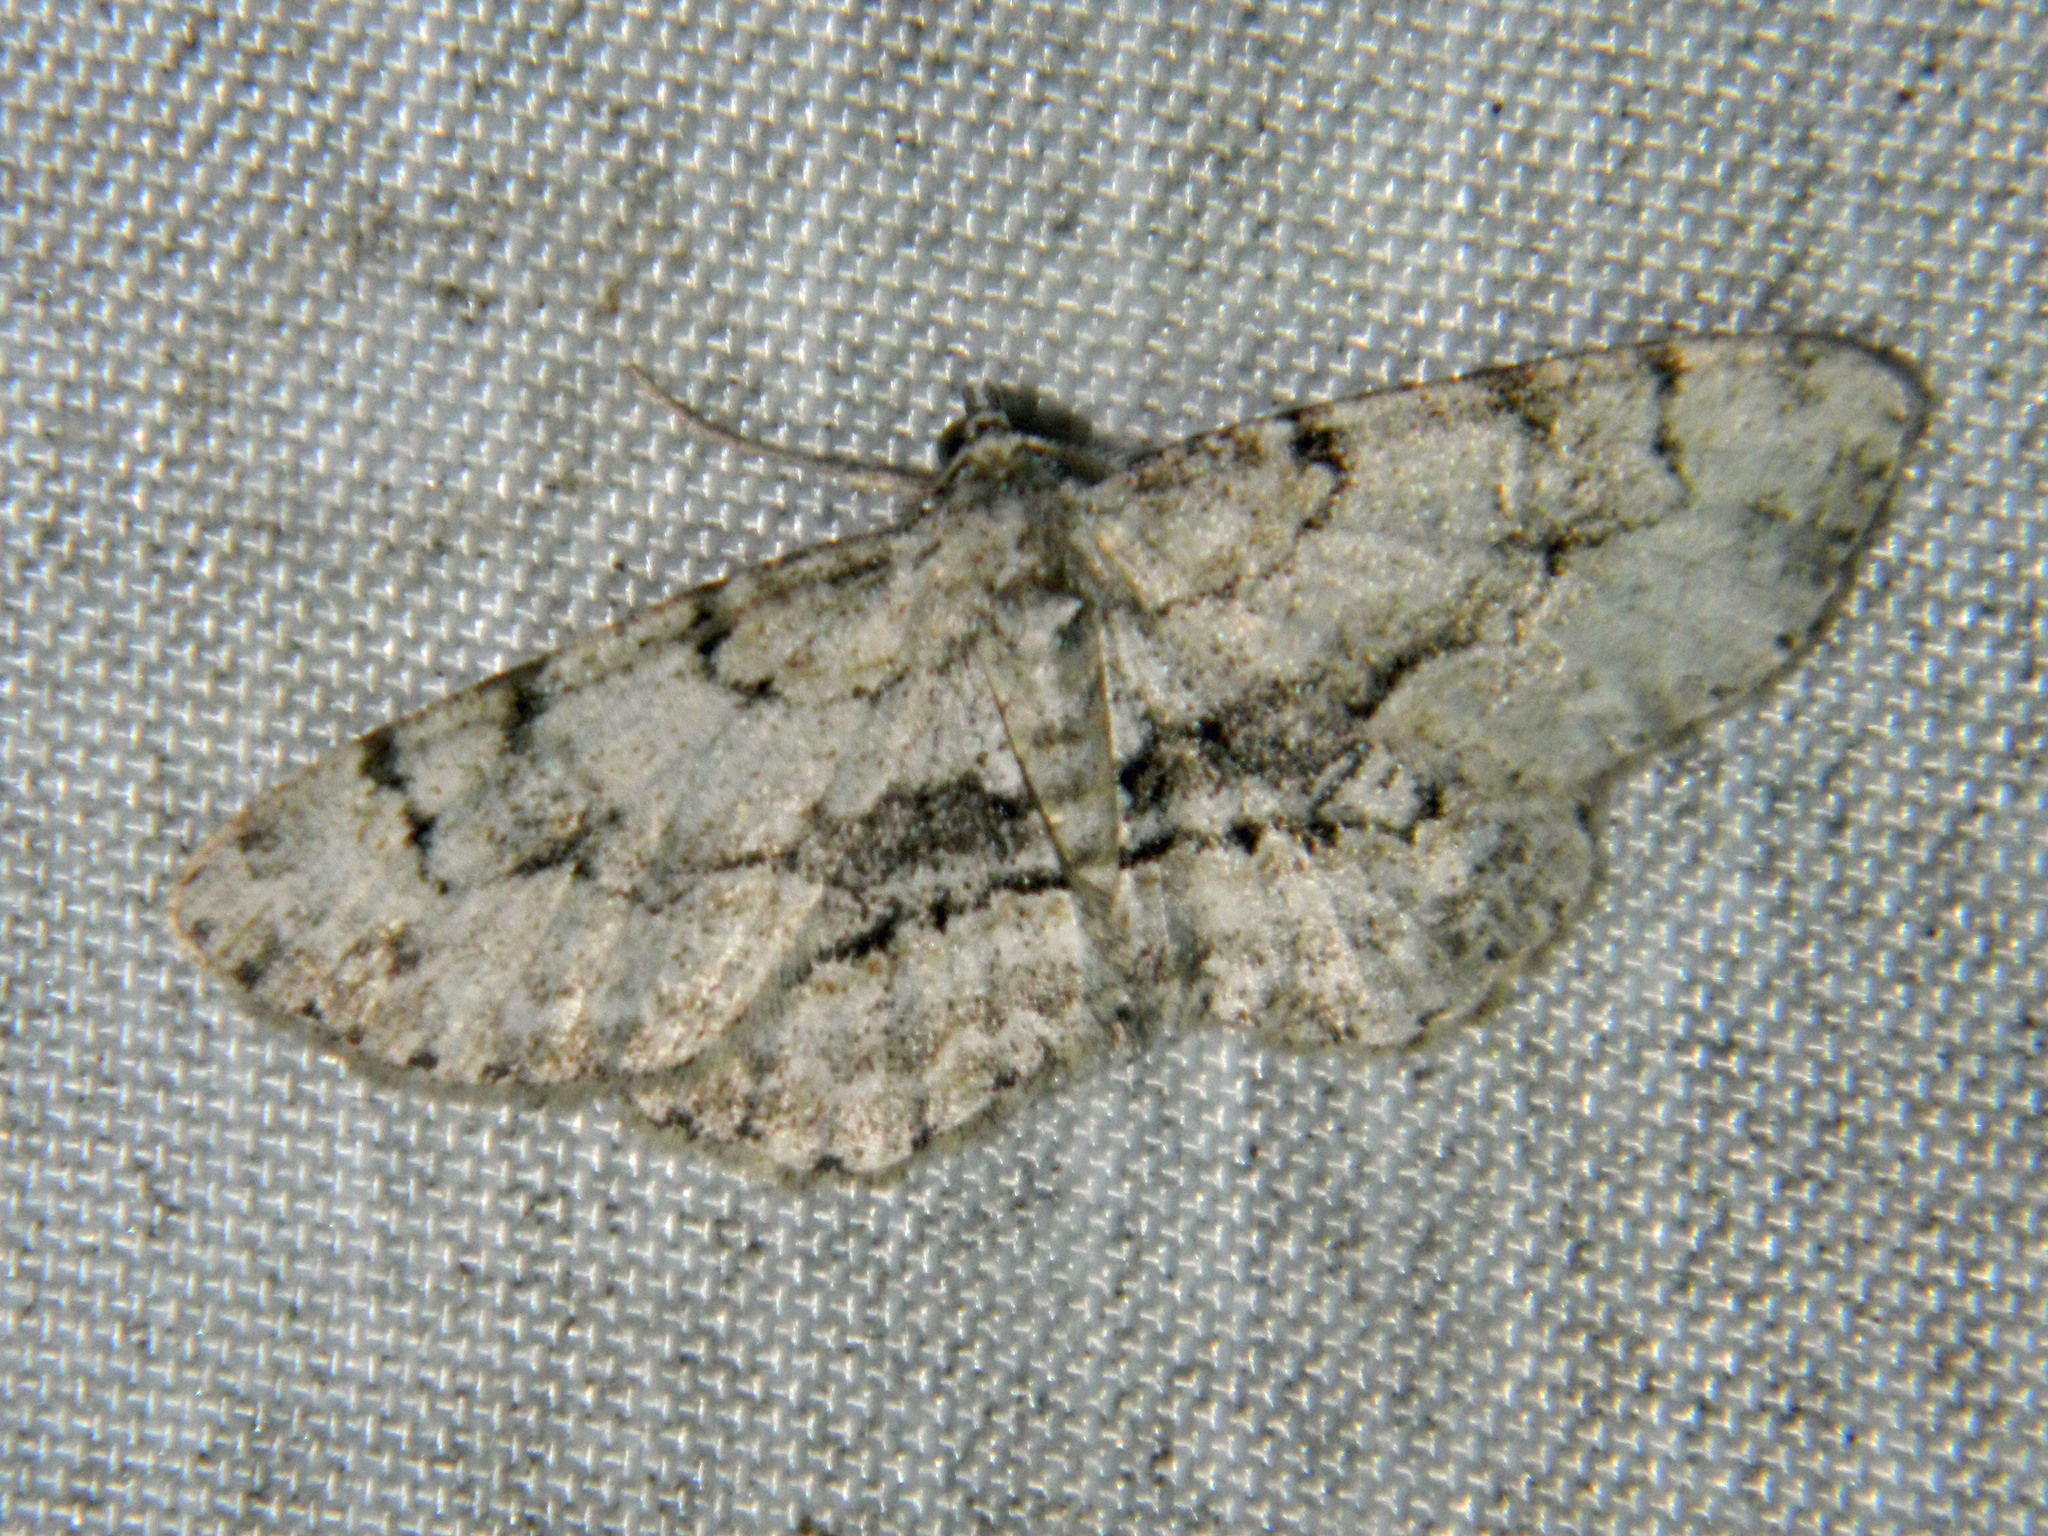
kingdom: Animalia
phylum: Arthropoda
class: Insecta
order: Lepidoptera
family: Geometridae
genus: Iridopsis
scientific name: Iridopsis ephyraria
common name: Pale-winged gray
